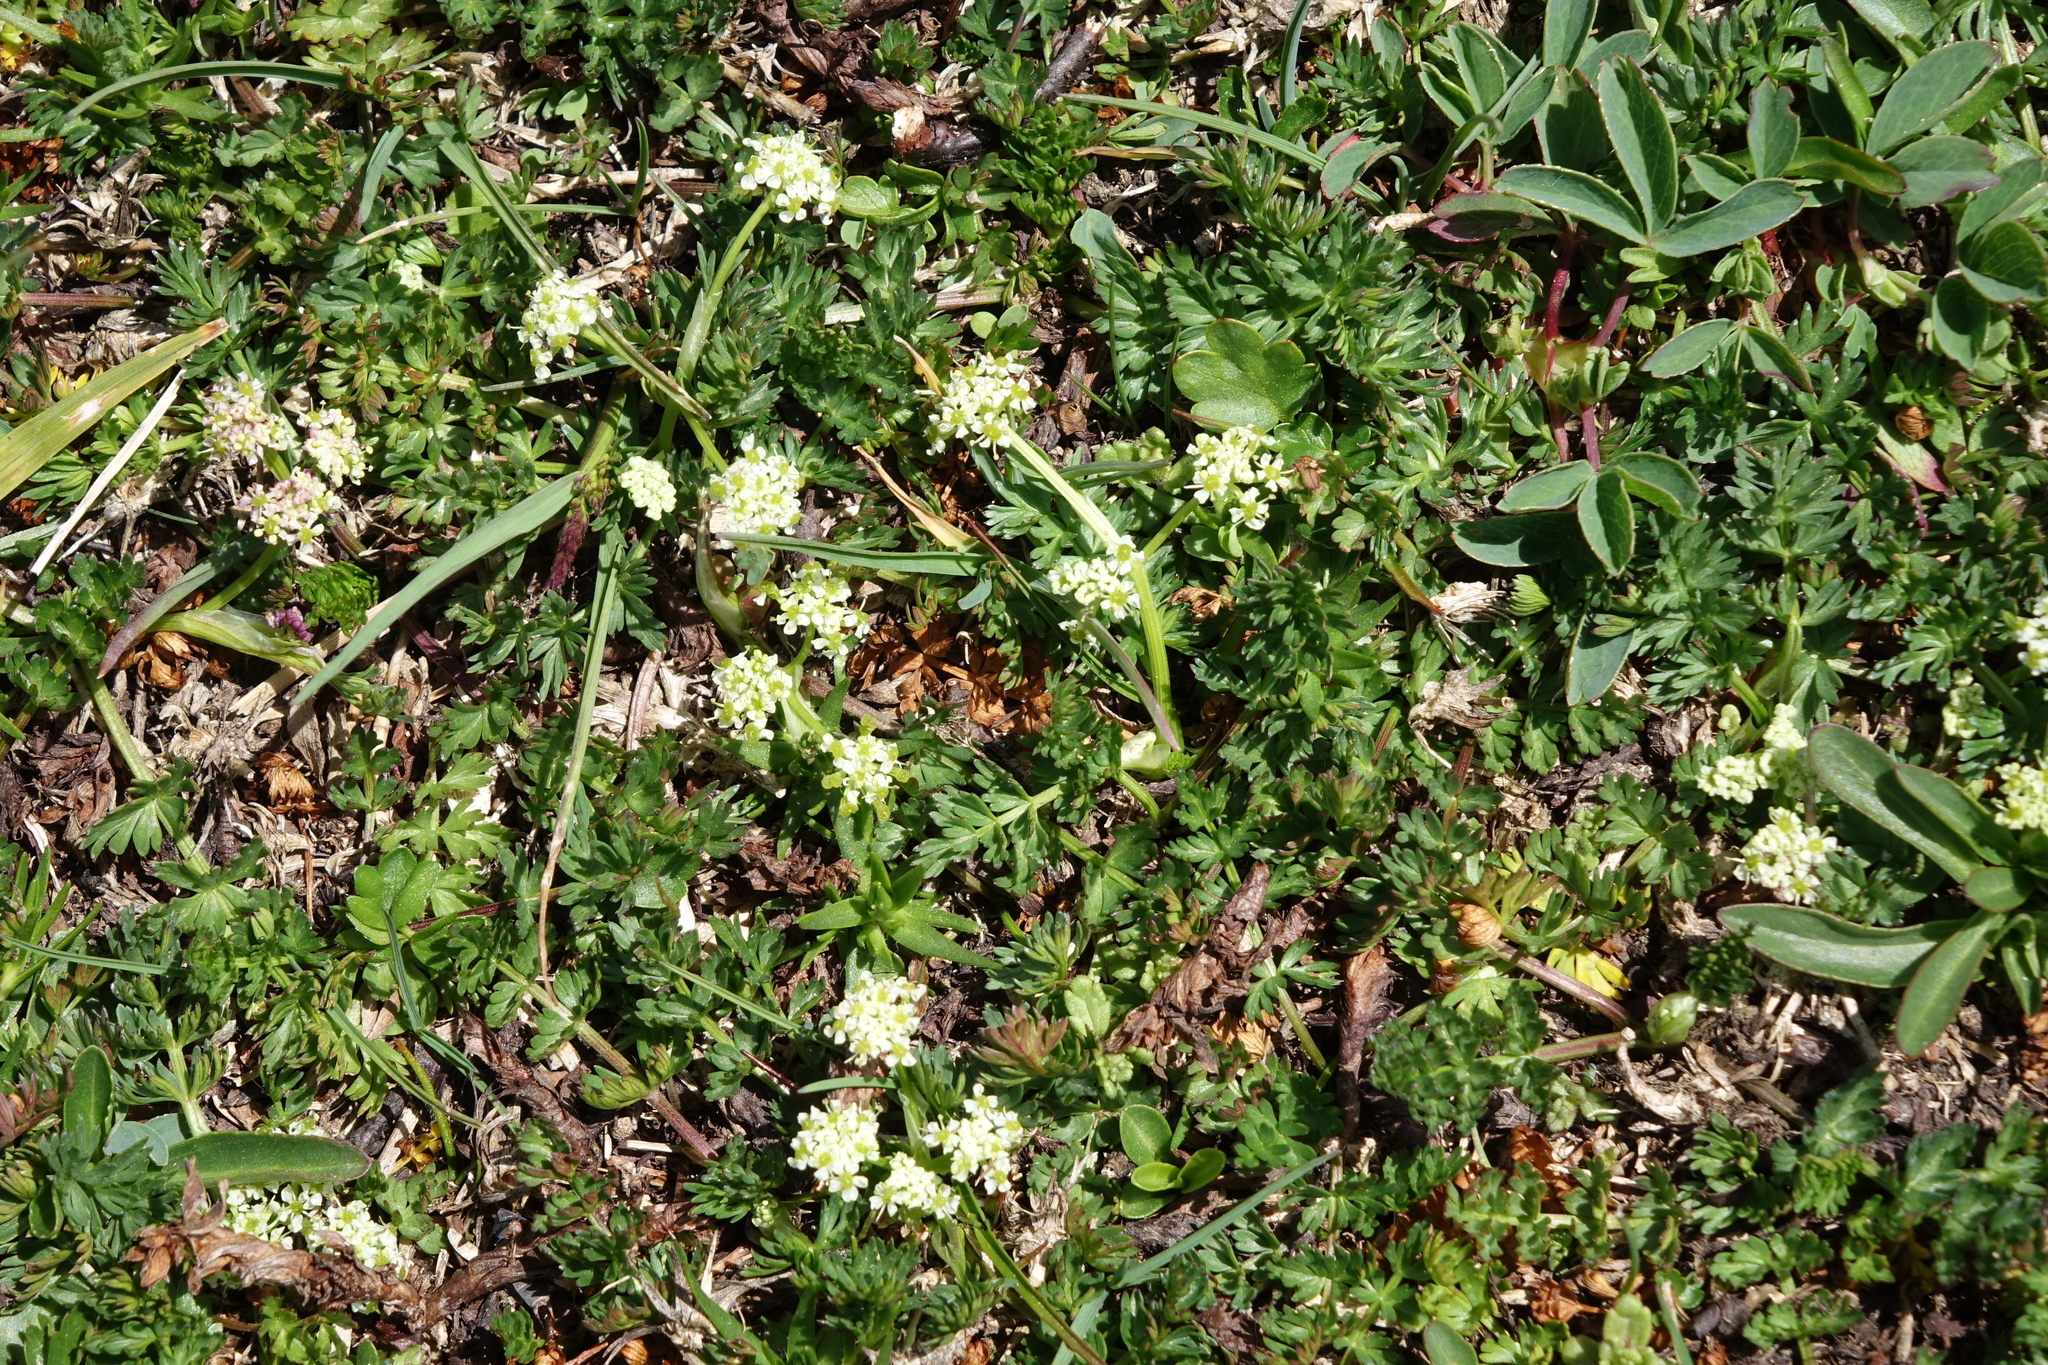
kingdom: Plantae
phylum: Tracheophyta
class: Magnoliopsida
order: Apiales
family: Apiaceae
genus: Chamaesciadium
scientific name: Chamaesciadium acaule
